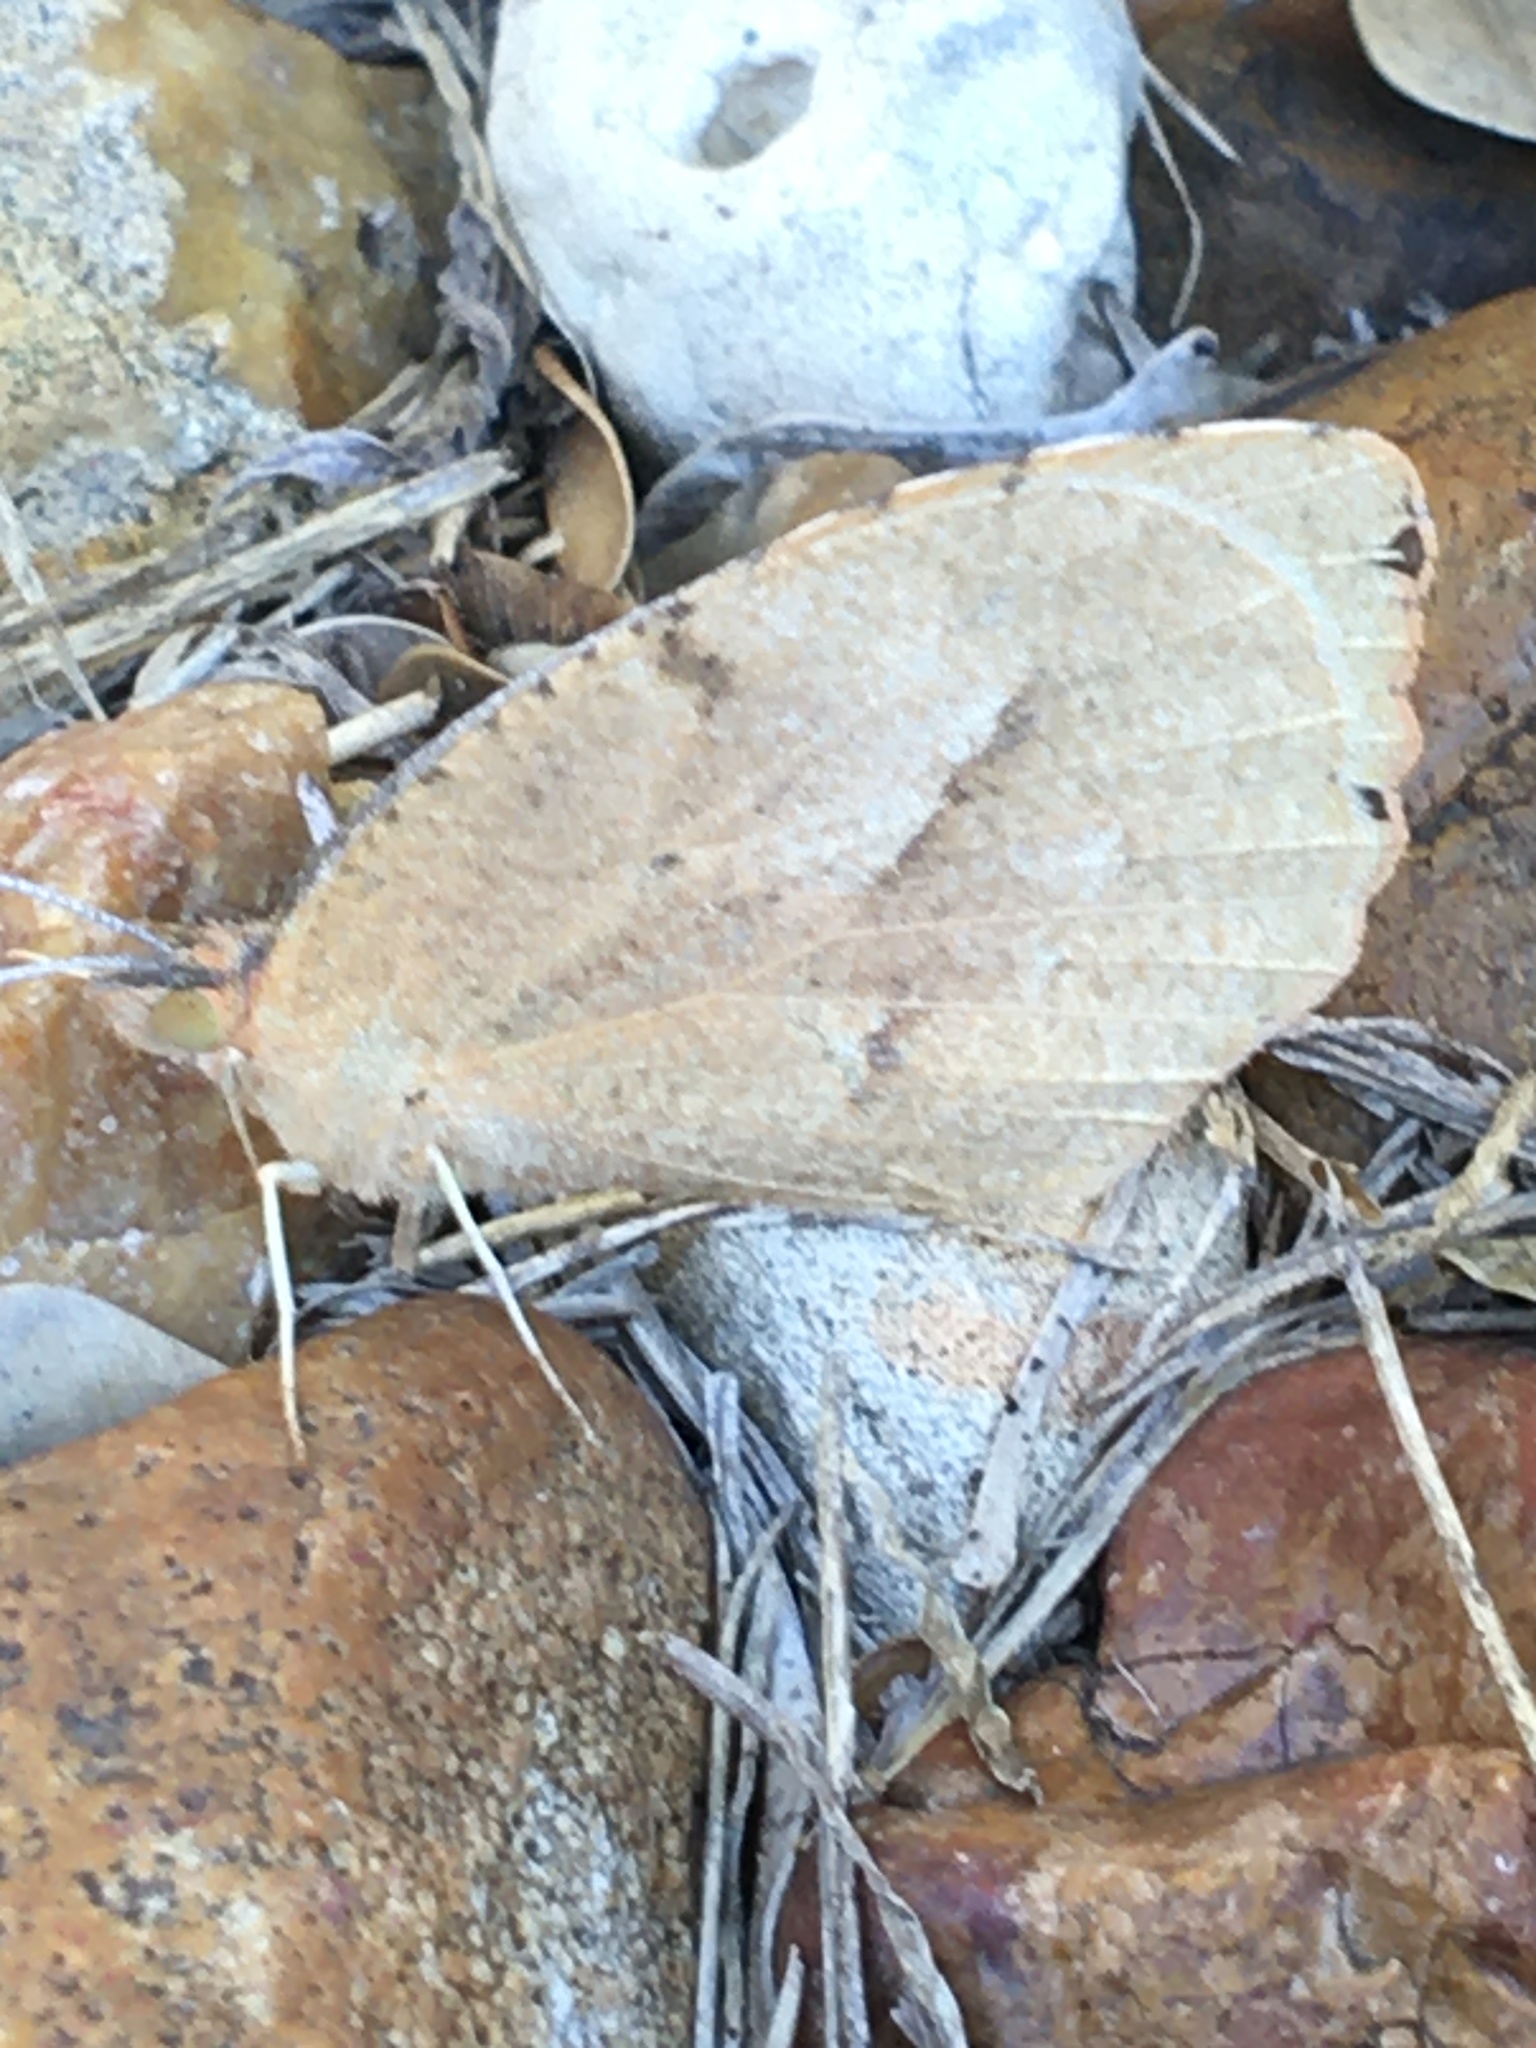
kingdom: Animalia
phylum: Arthropoda
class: Insecta
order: Lepidoptera
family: Pieridae
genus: Abaeis
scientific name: Abaeis nicippe
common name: Sleepy orange
